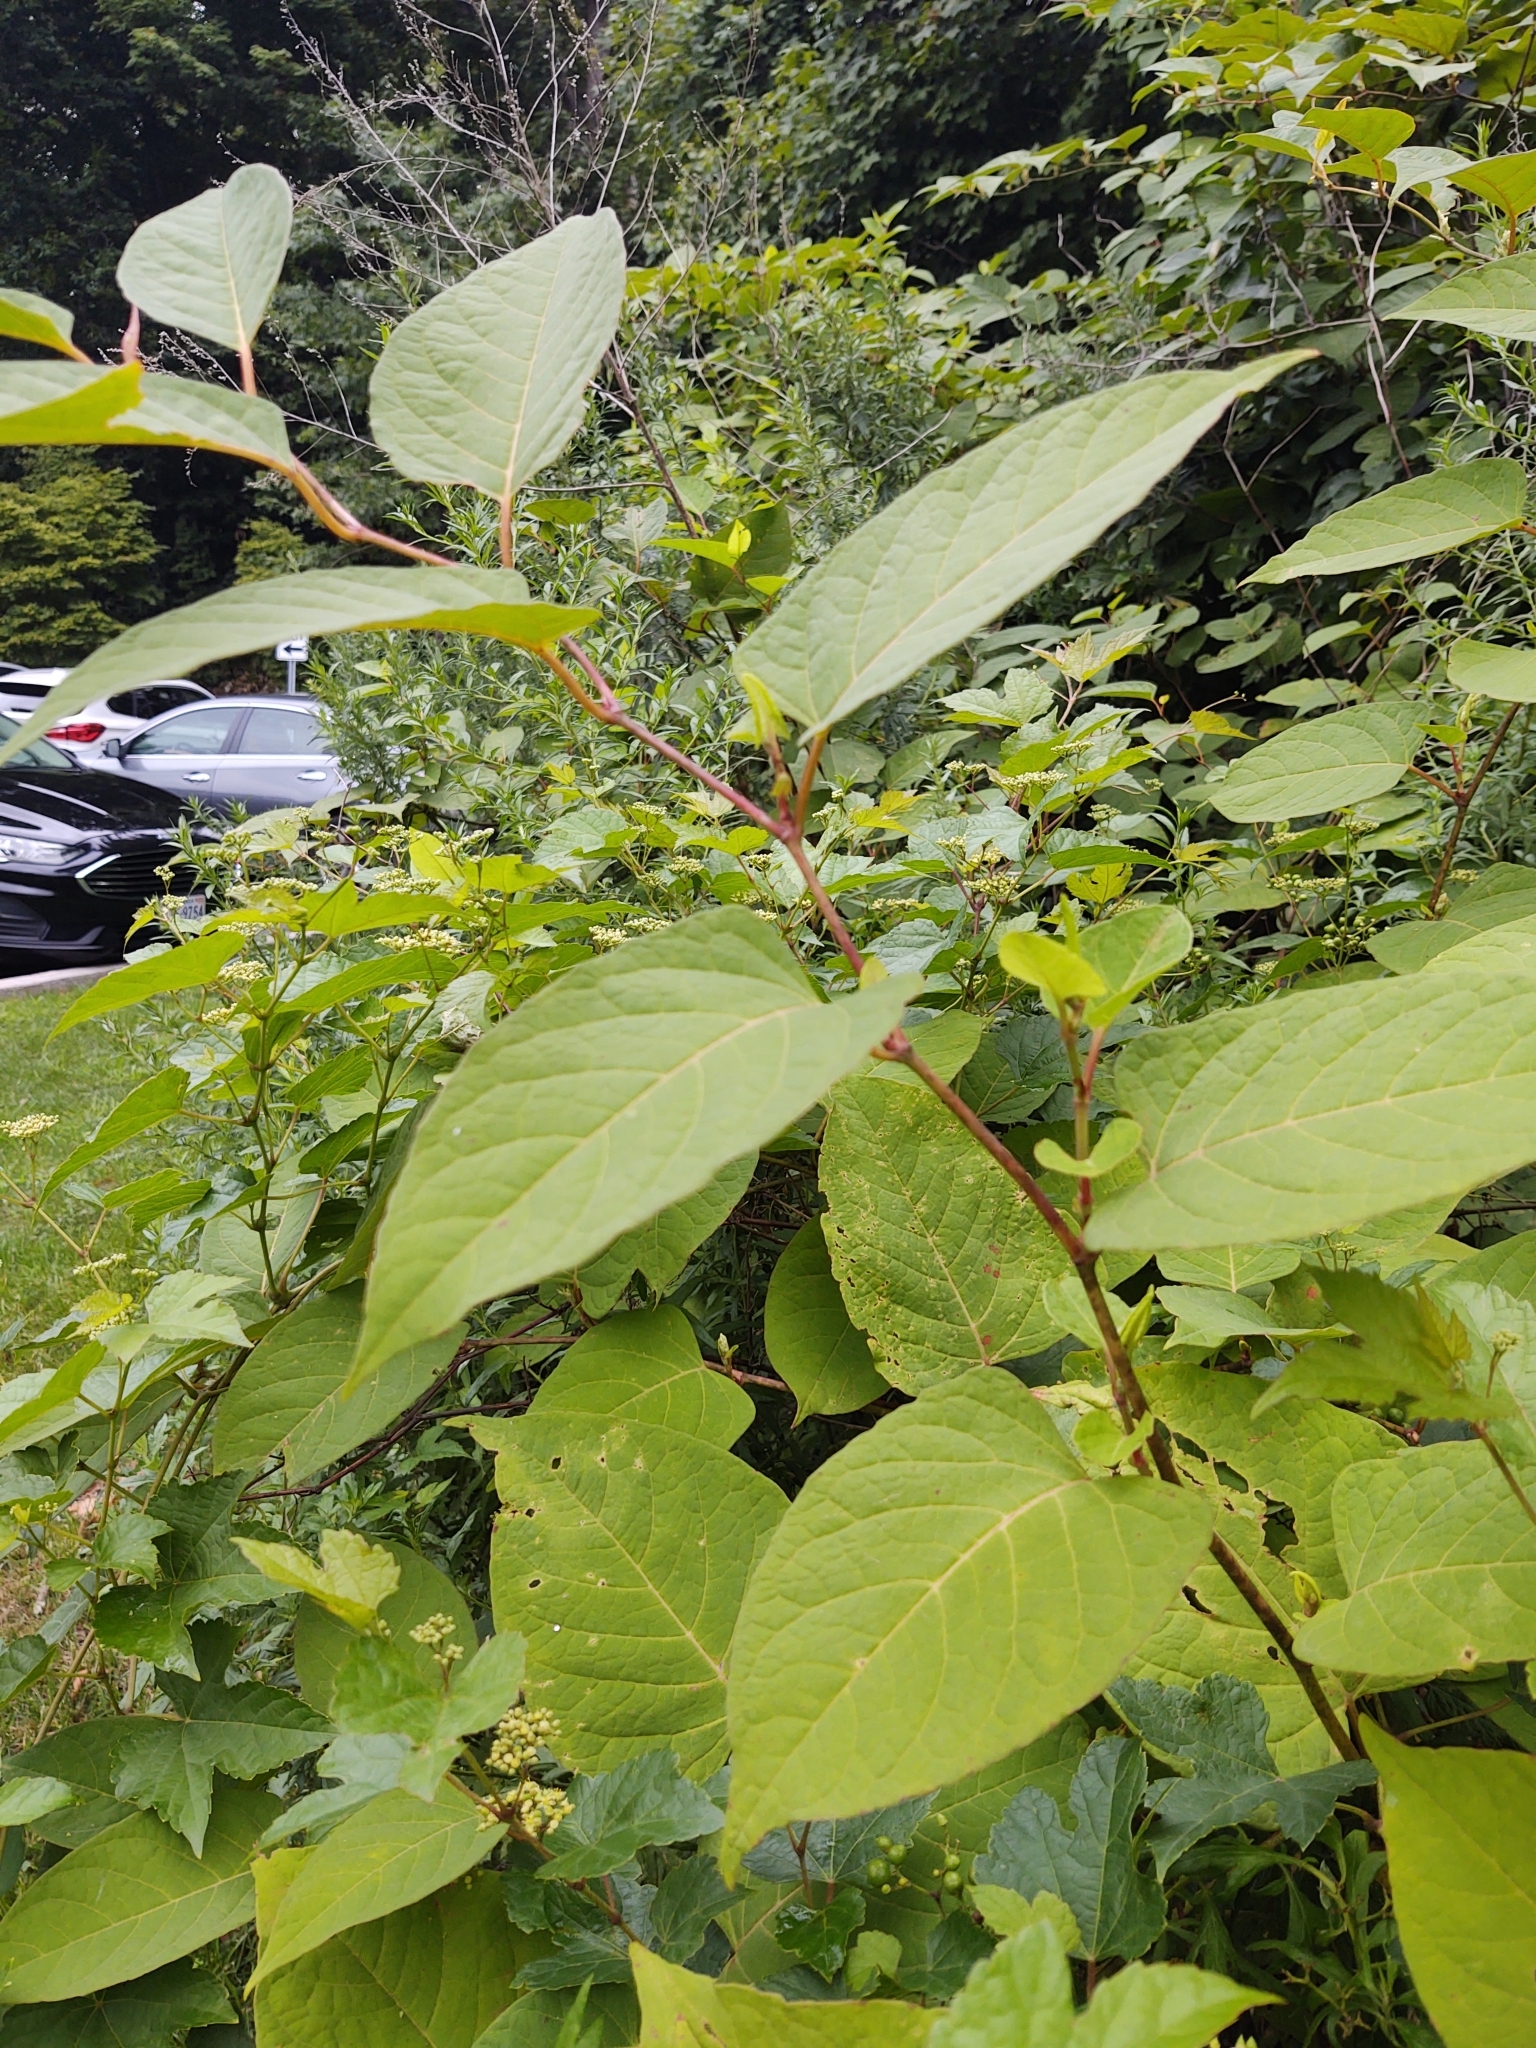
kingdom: Plantae
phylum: Tracheophyta
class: Magnoliopsida
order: Caryophyllales
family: Polygonaceae
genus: Reynoutria
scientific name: Reynoutria japonica
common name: Japanese knotweed
